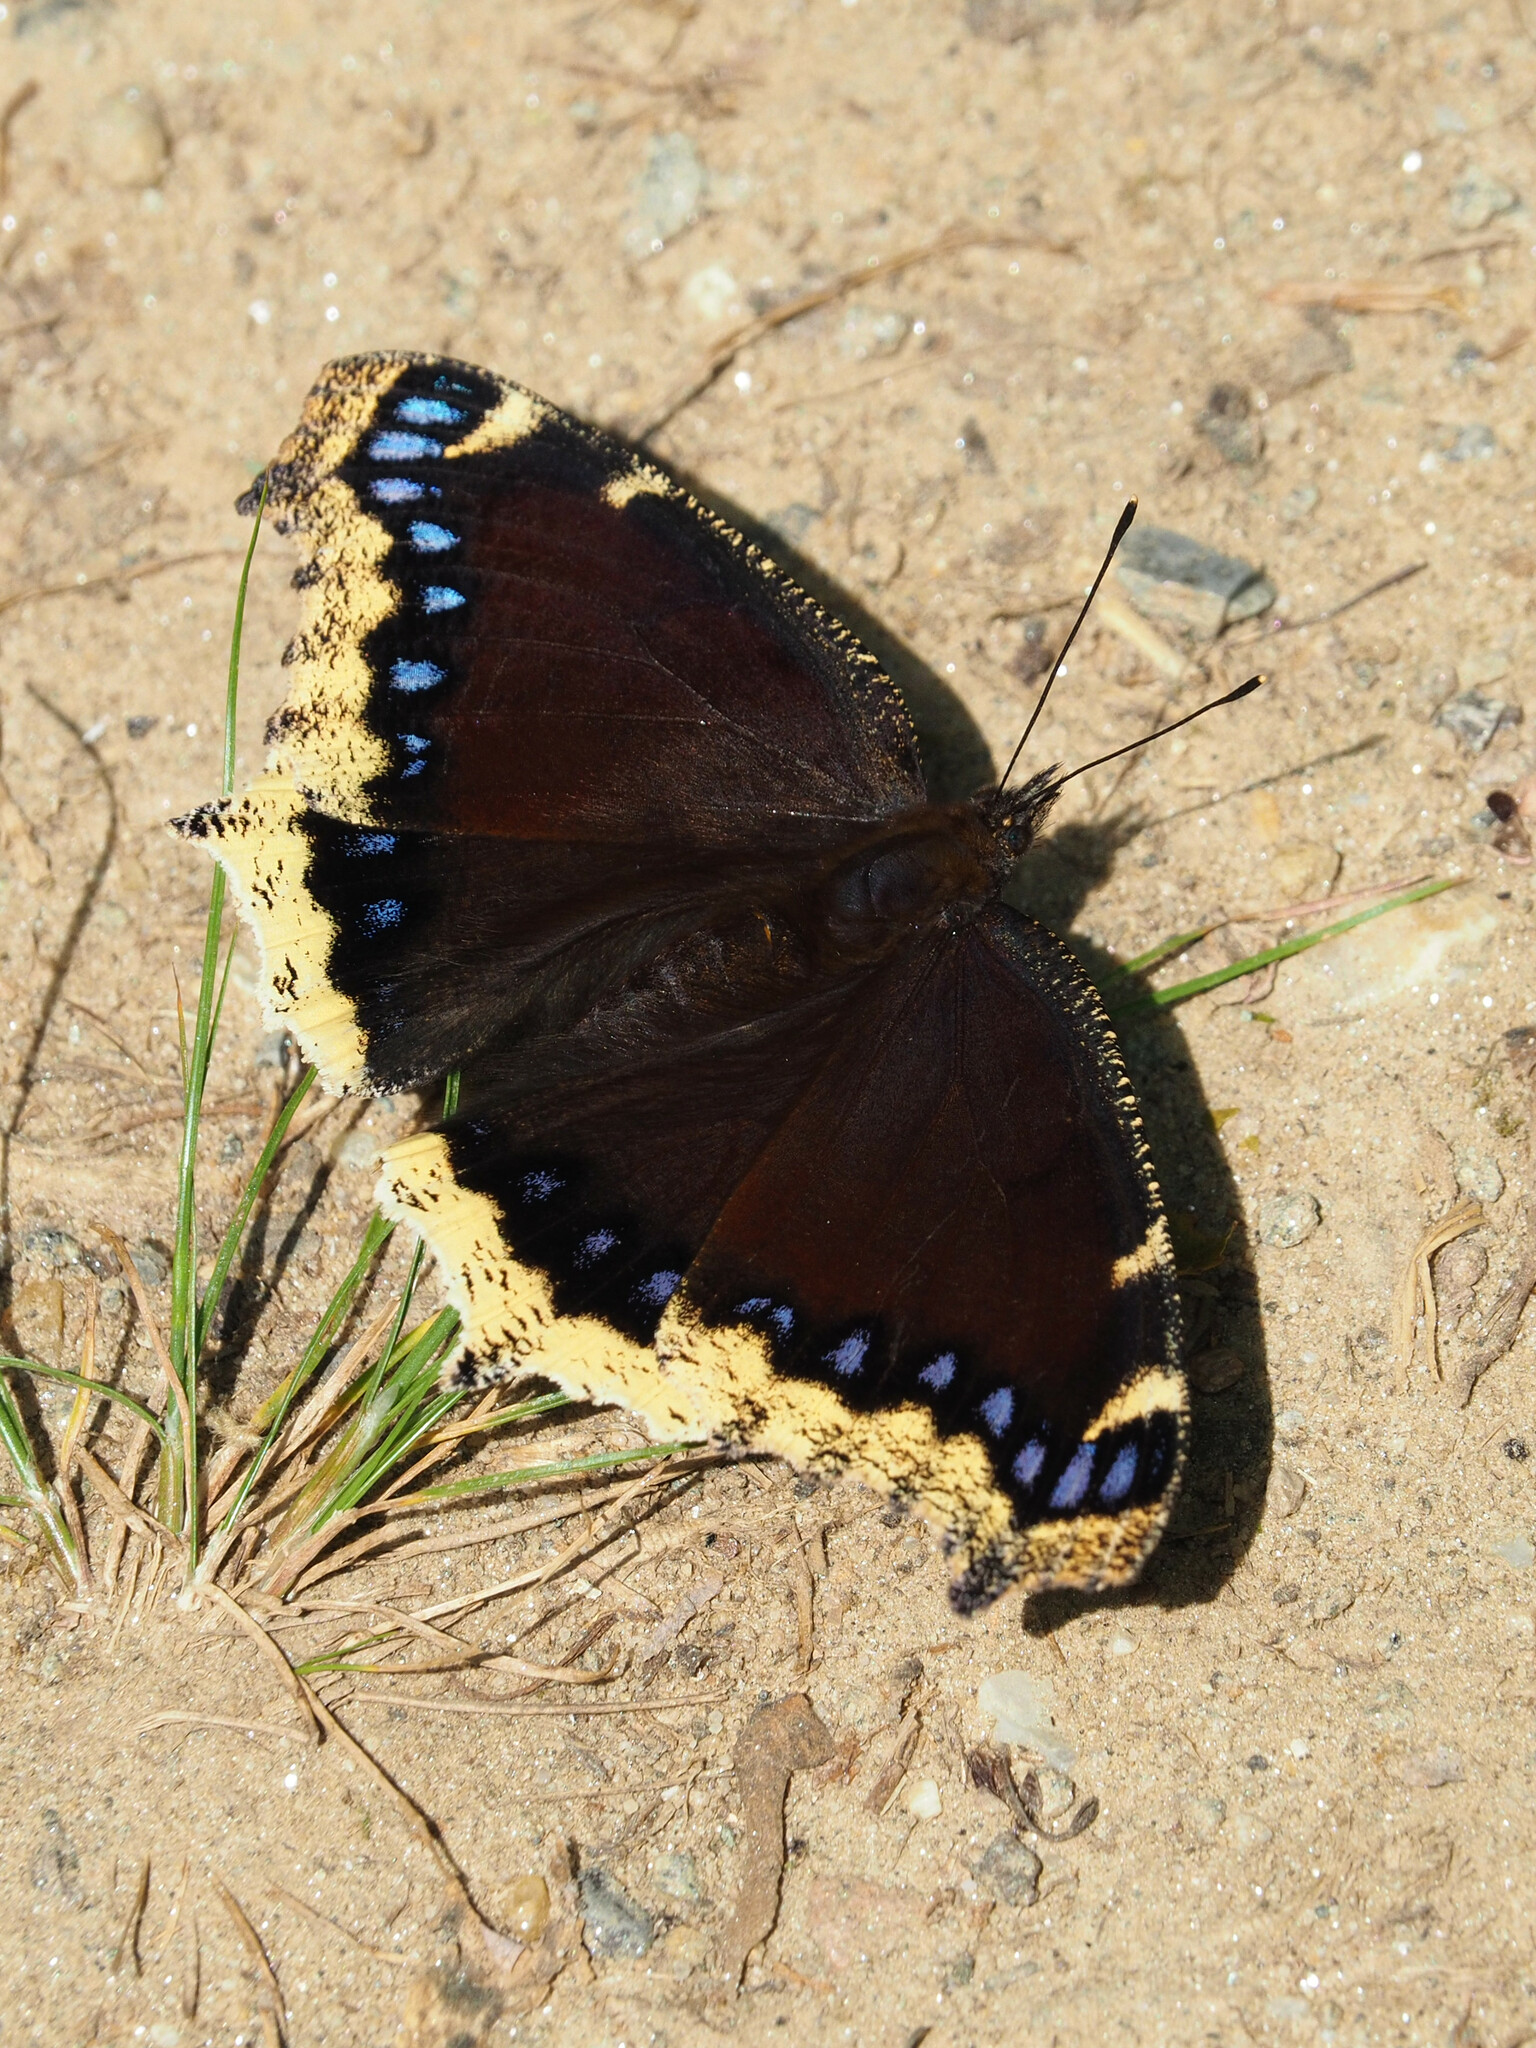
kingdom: Animalia
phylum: Arthropoda
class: Insecta
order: Lepidoptera
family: Nymphalidae
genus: Nymphalis
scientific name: Nymphalis antiopa
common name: Camberwell beauty
